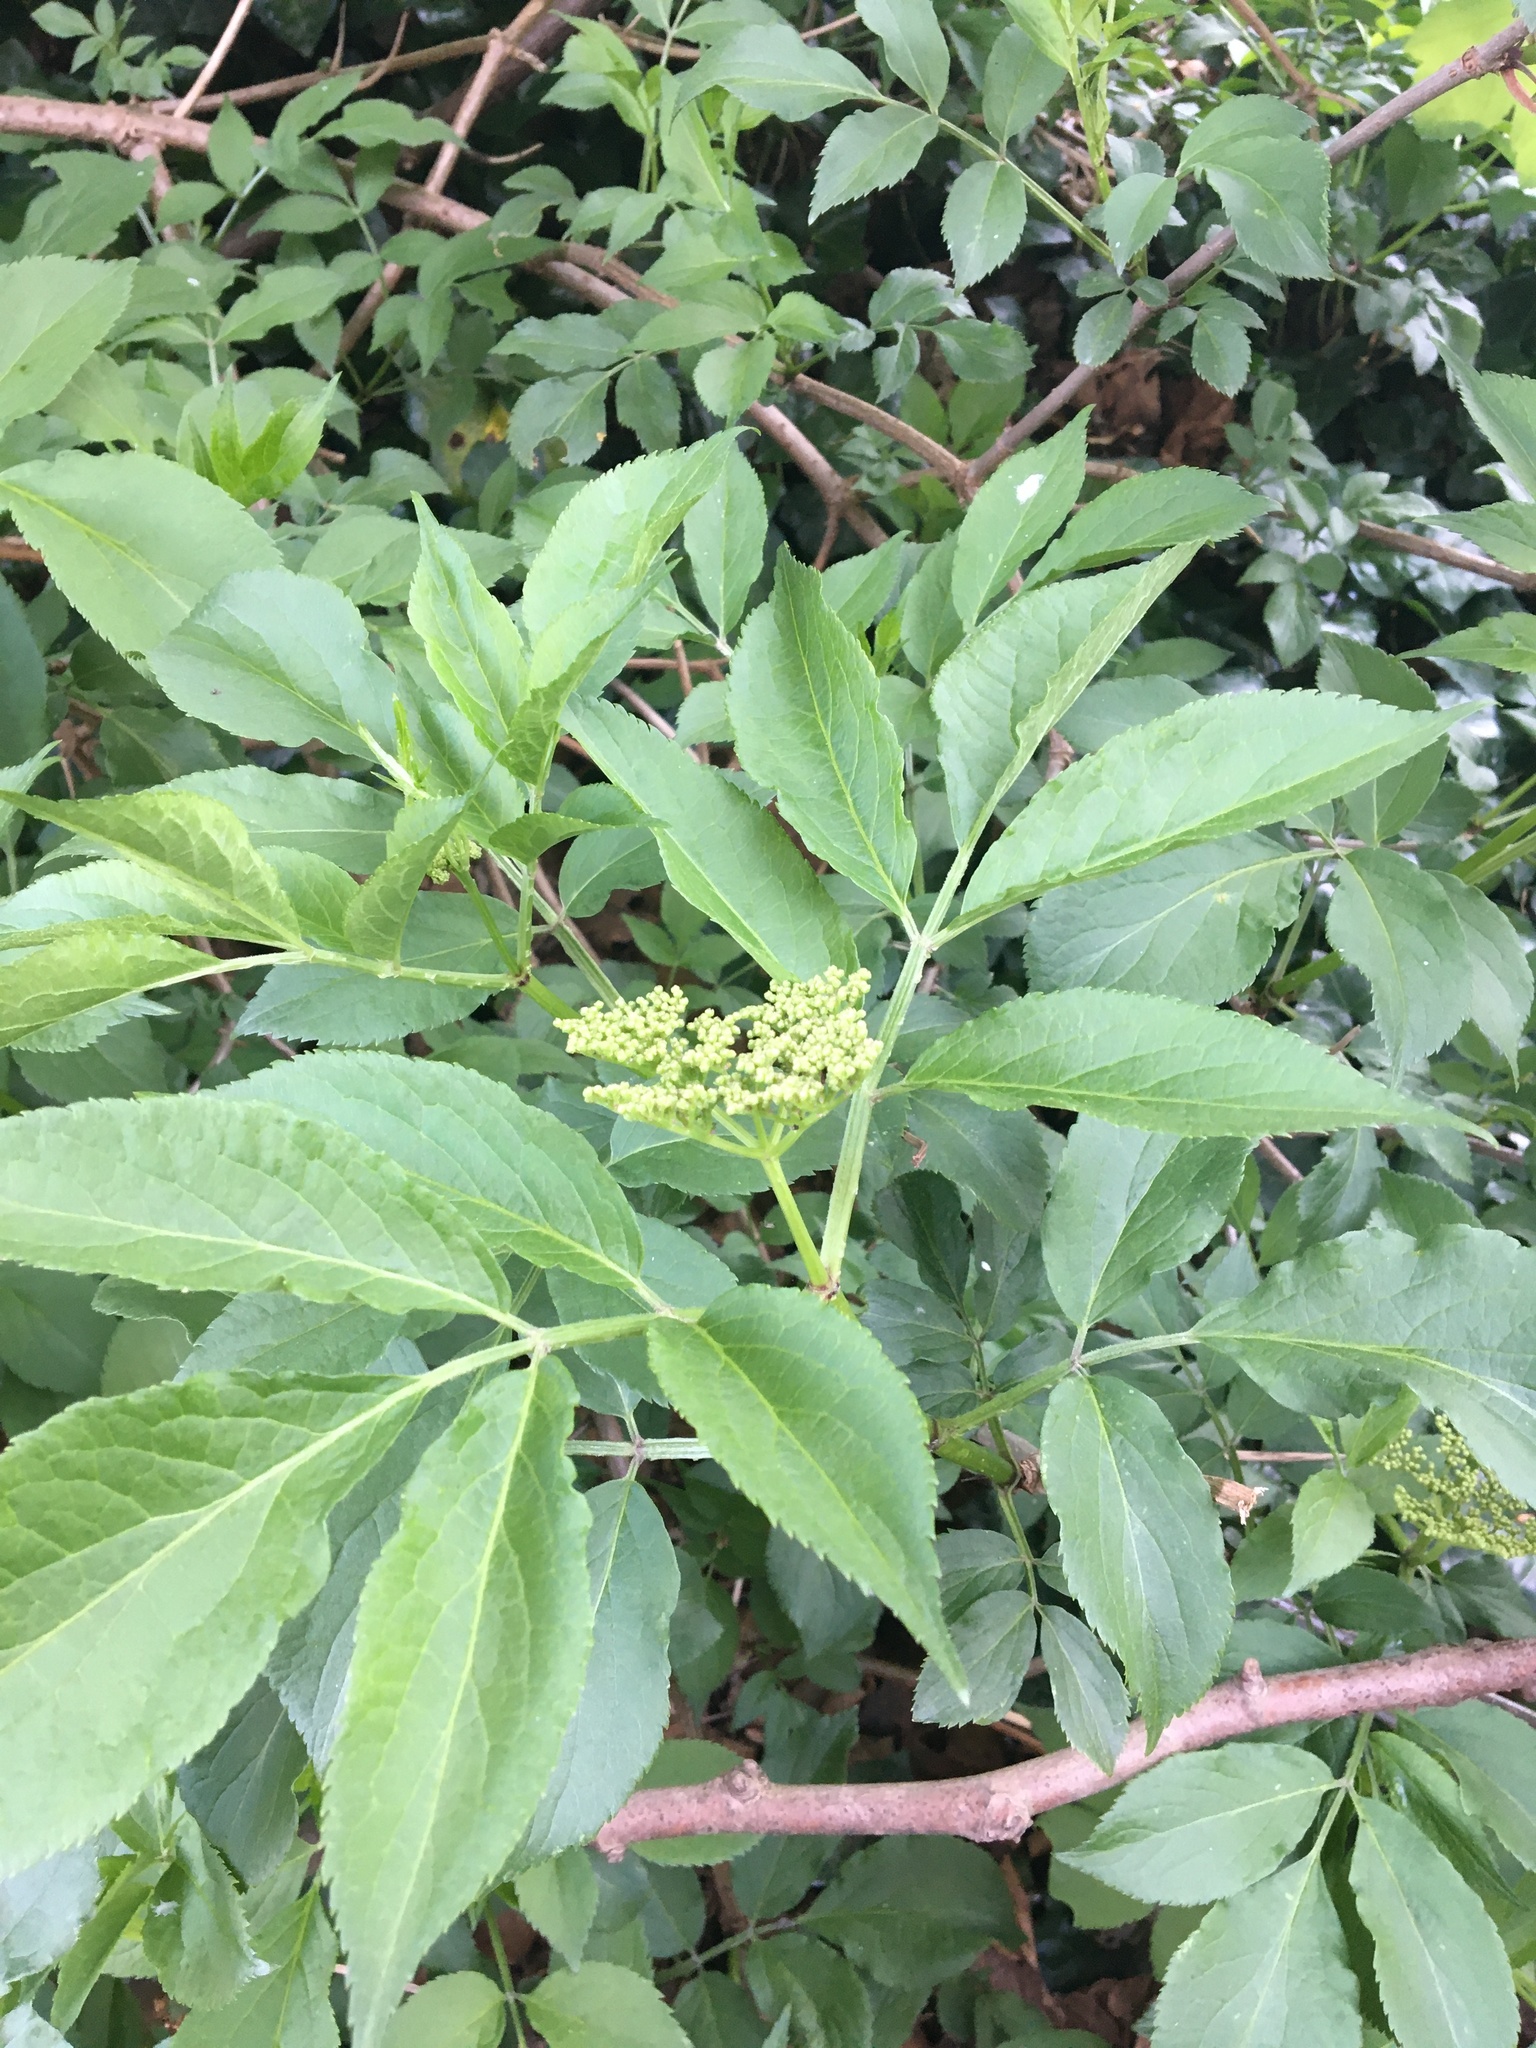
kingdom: Plantae
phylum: Tracheophyta
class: Magnoliopsida
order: Dipsacales
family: Viburnaceae
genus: Sambucus
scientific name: Sambucus nigra
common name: Elder
